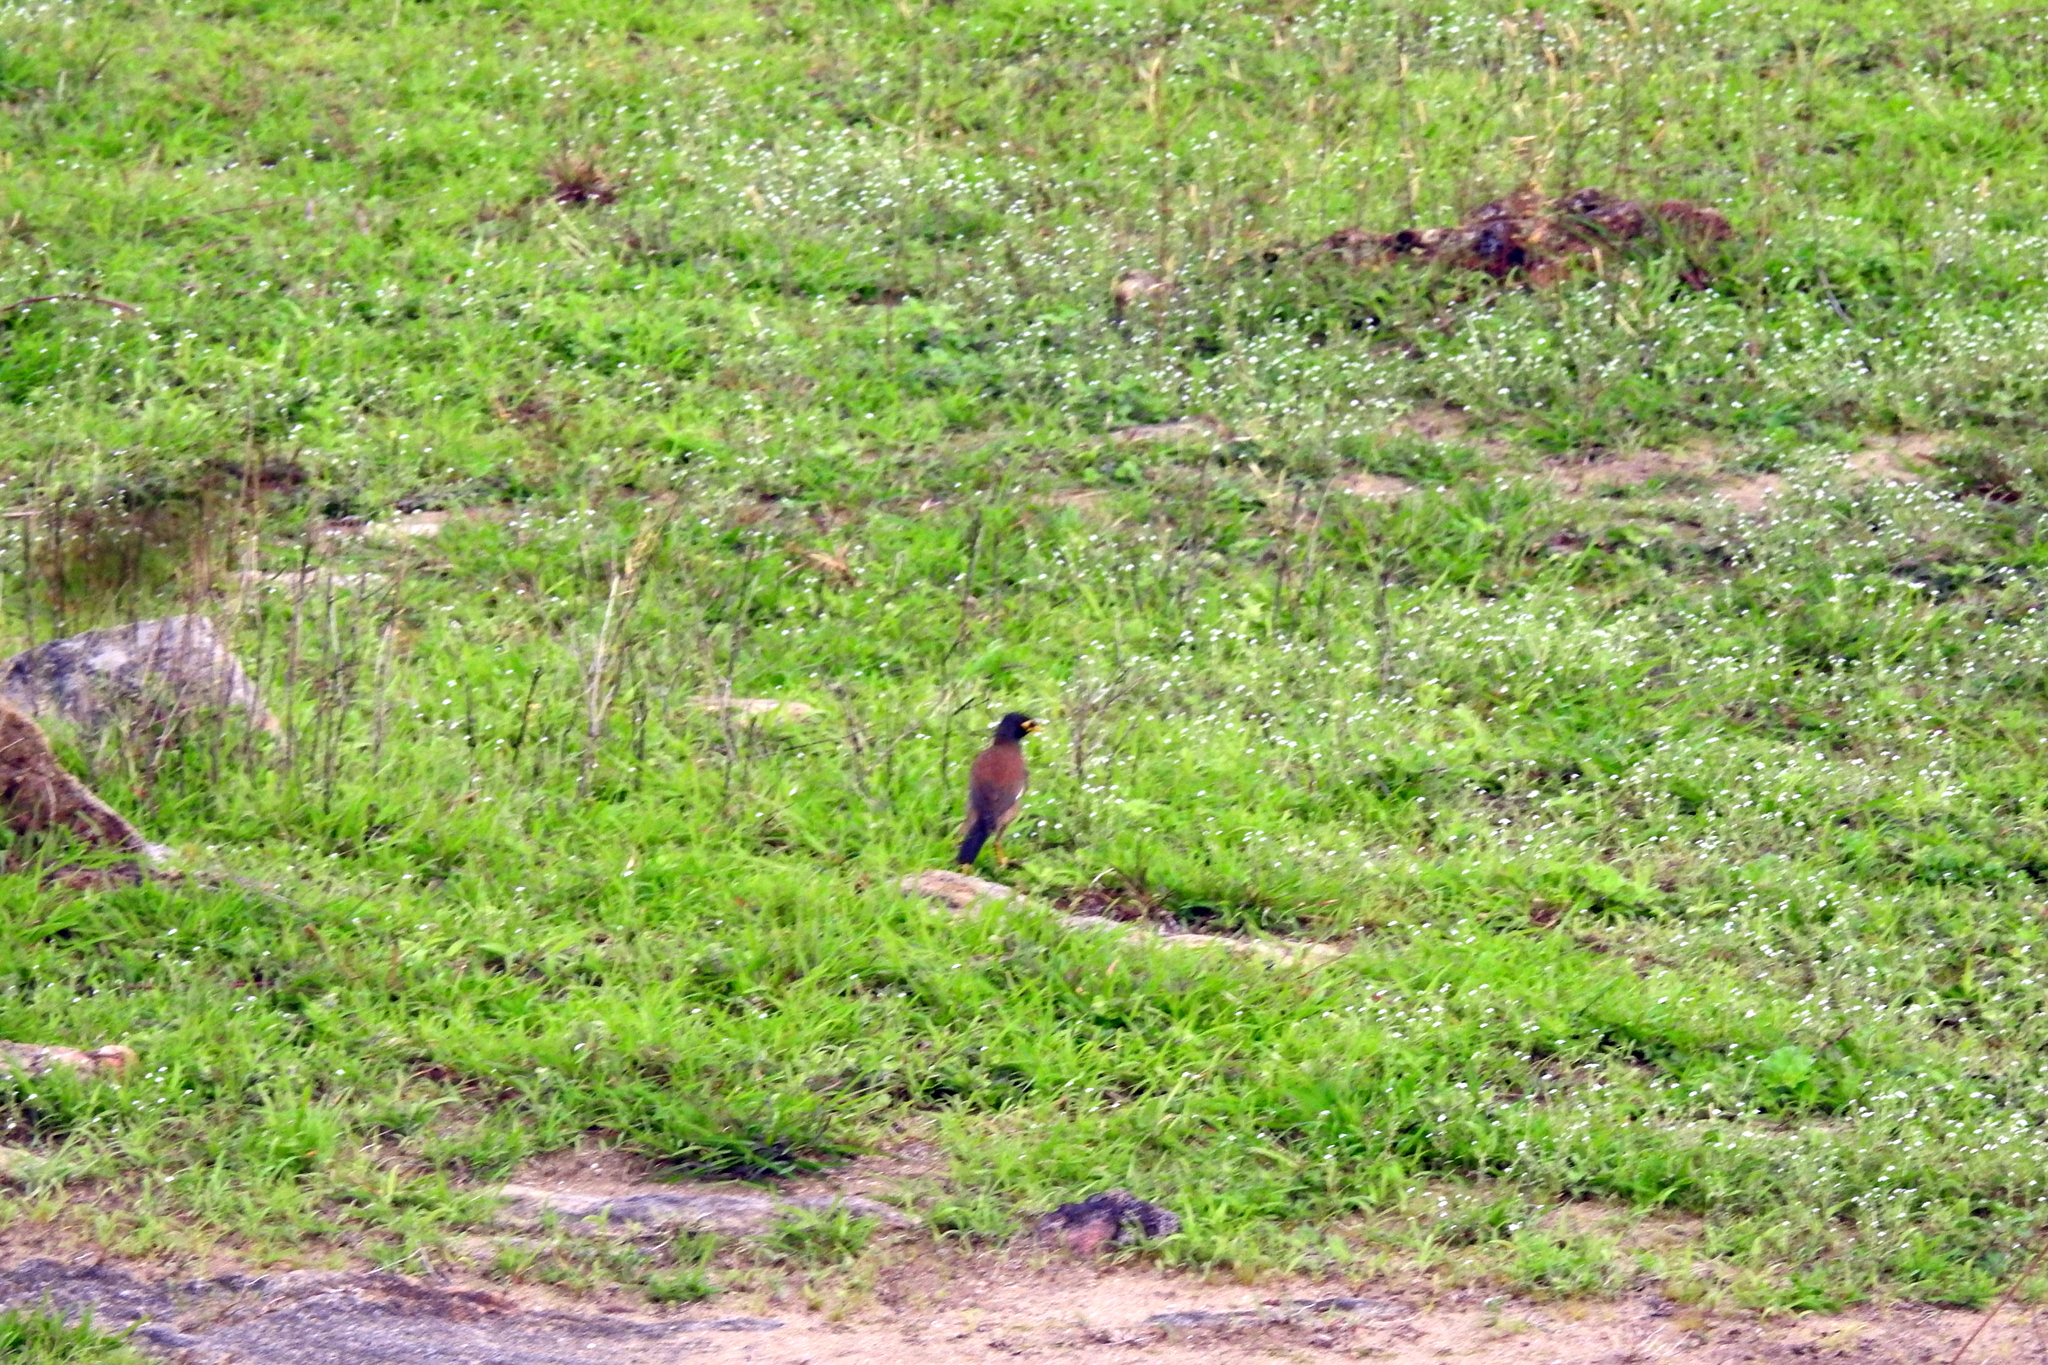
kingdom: Animalia
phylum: Chordata
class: Aves
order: Passeriformes
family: Sturnidae
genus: Acridotheres
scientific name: Acridotheres tristis
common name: Common myna
